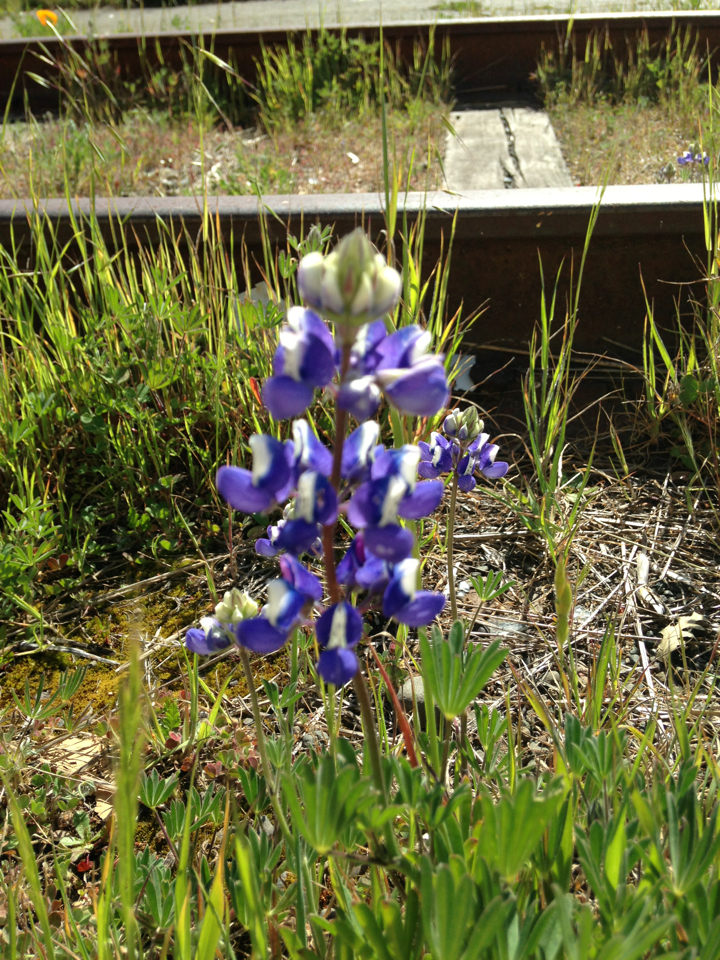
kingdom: Plantae
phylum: Tracheophyta
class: Magnoliopsida
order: Fabales
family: Fabaceae
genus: Lupinus
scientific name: Lupinus nanus
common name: Orean blue lupin
